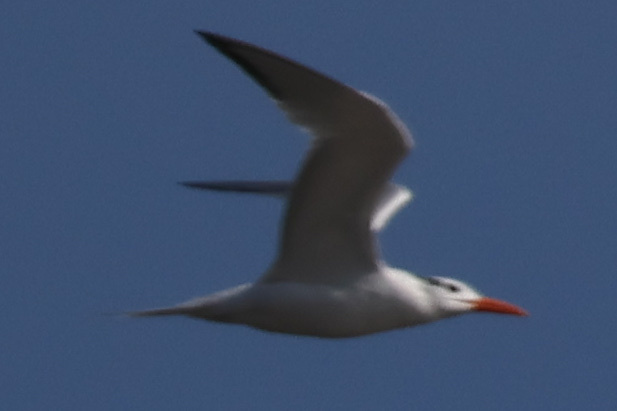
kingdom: Animalia
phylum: Chordata
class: Aves
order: Charadriiformes
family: Laridae
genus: Thalasseus
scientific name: Thalasseus maximus
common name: Royal tern
